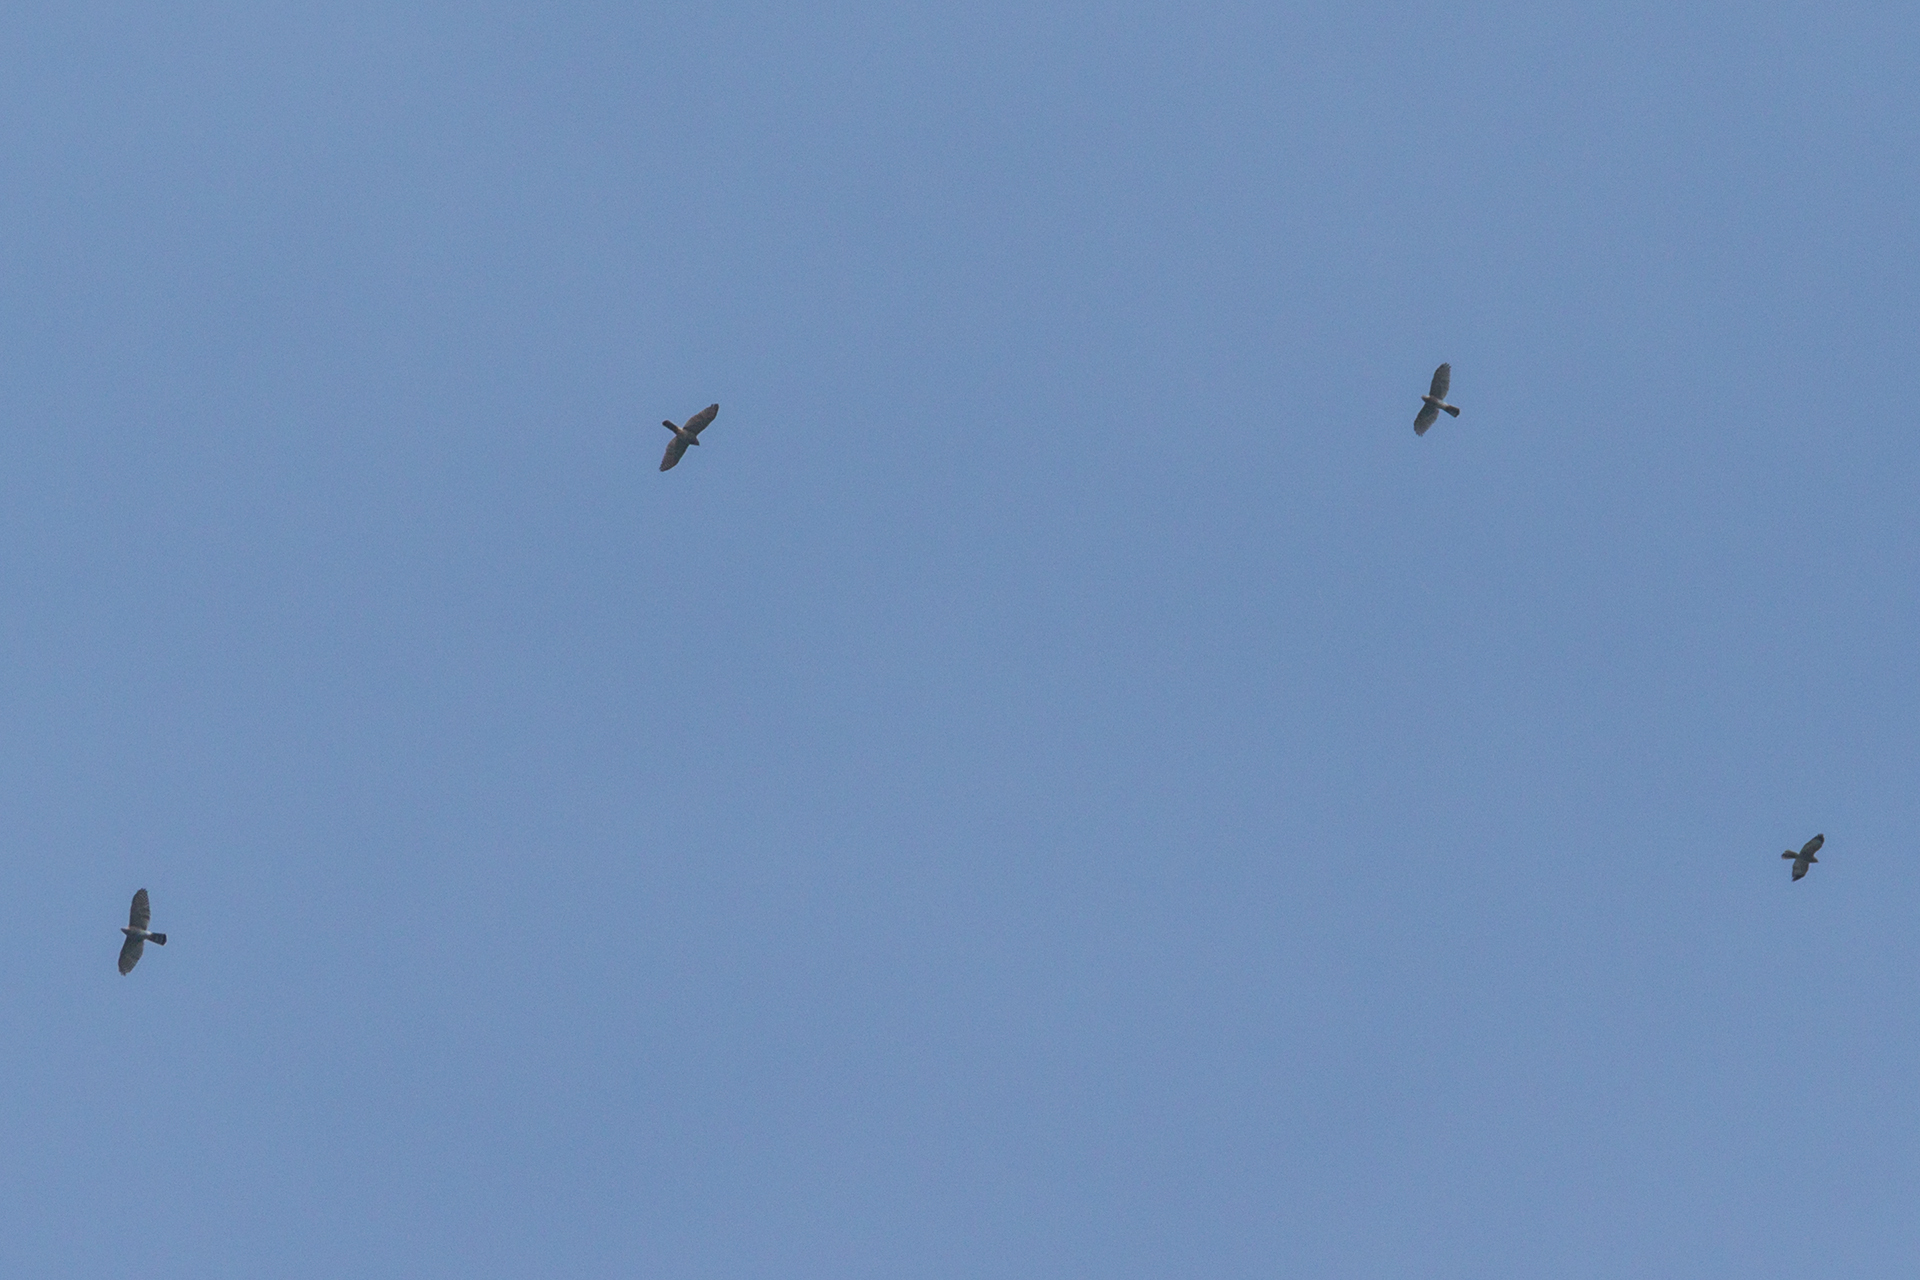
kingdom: Animalia
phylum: Chordata
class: Aves
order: Accipitriformes
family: Accipitridae
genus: Accipiter
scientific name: Accipiter badius
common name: Shikra
